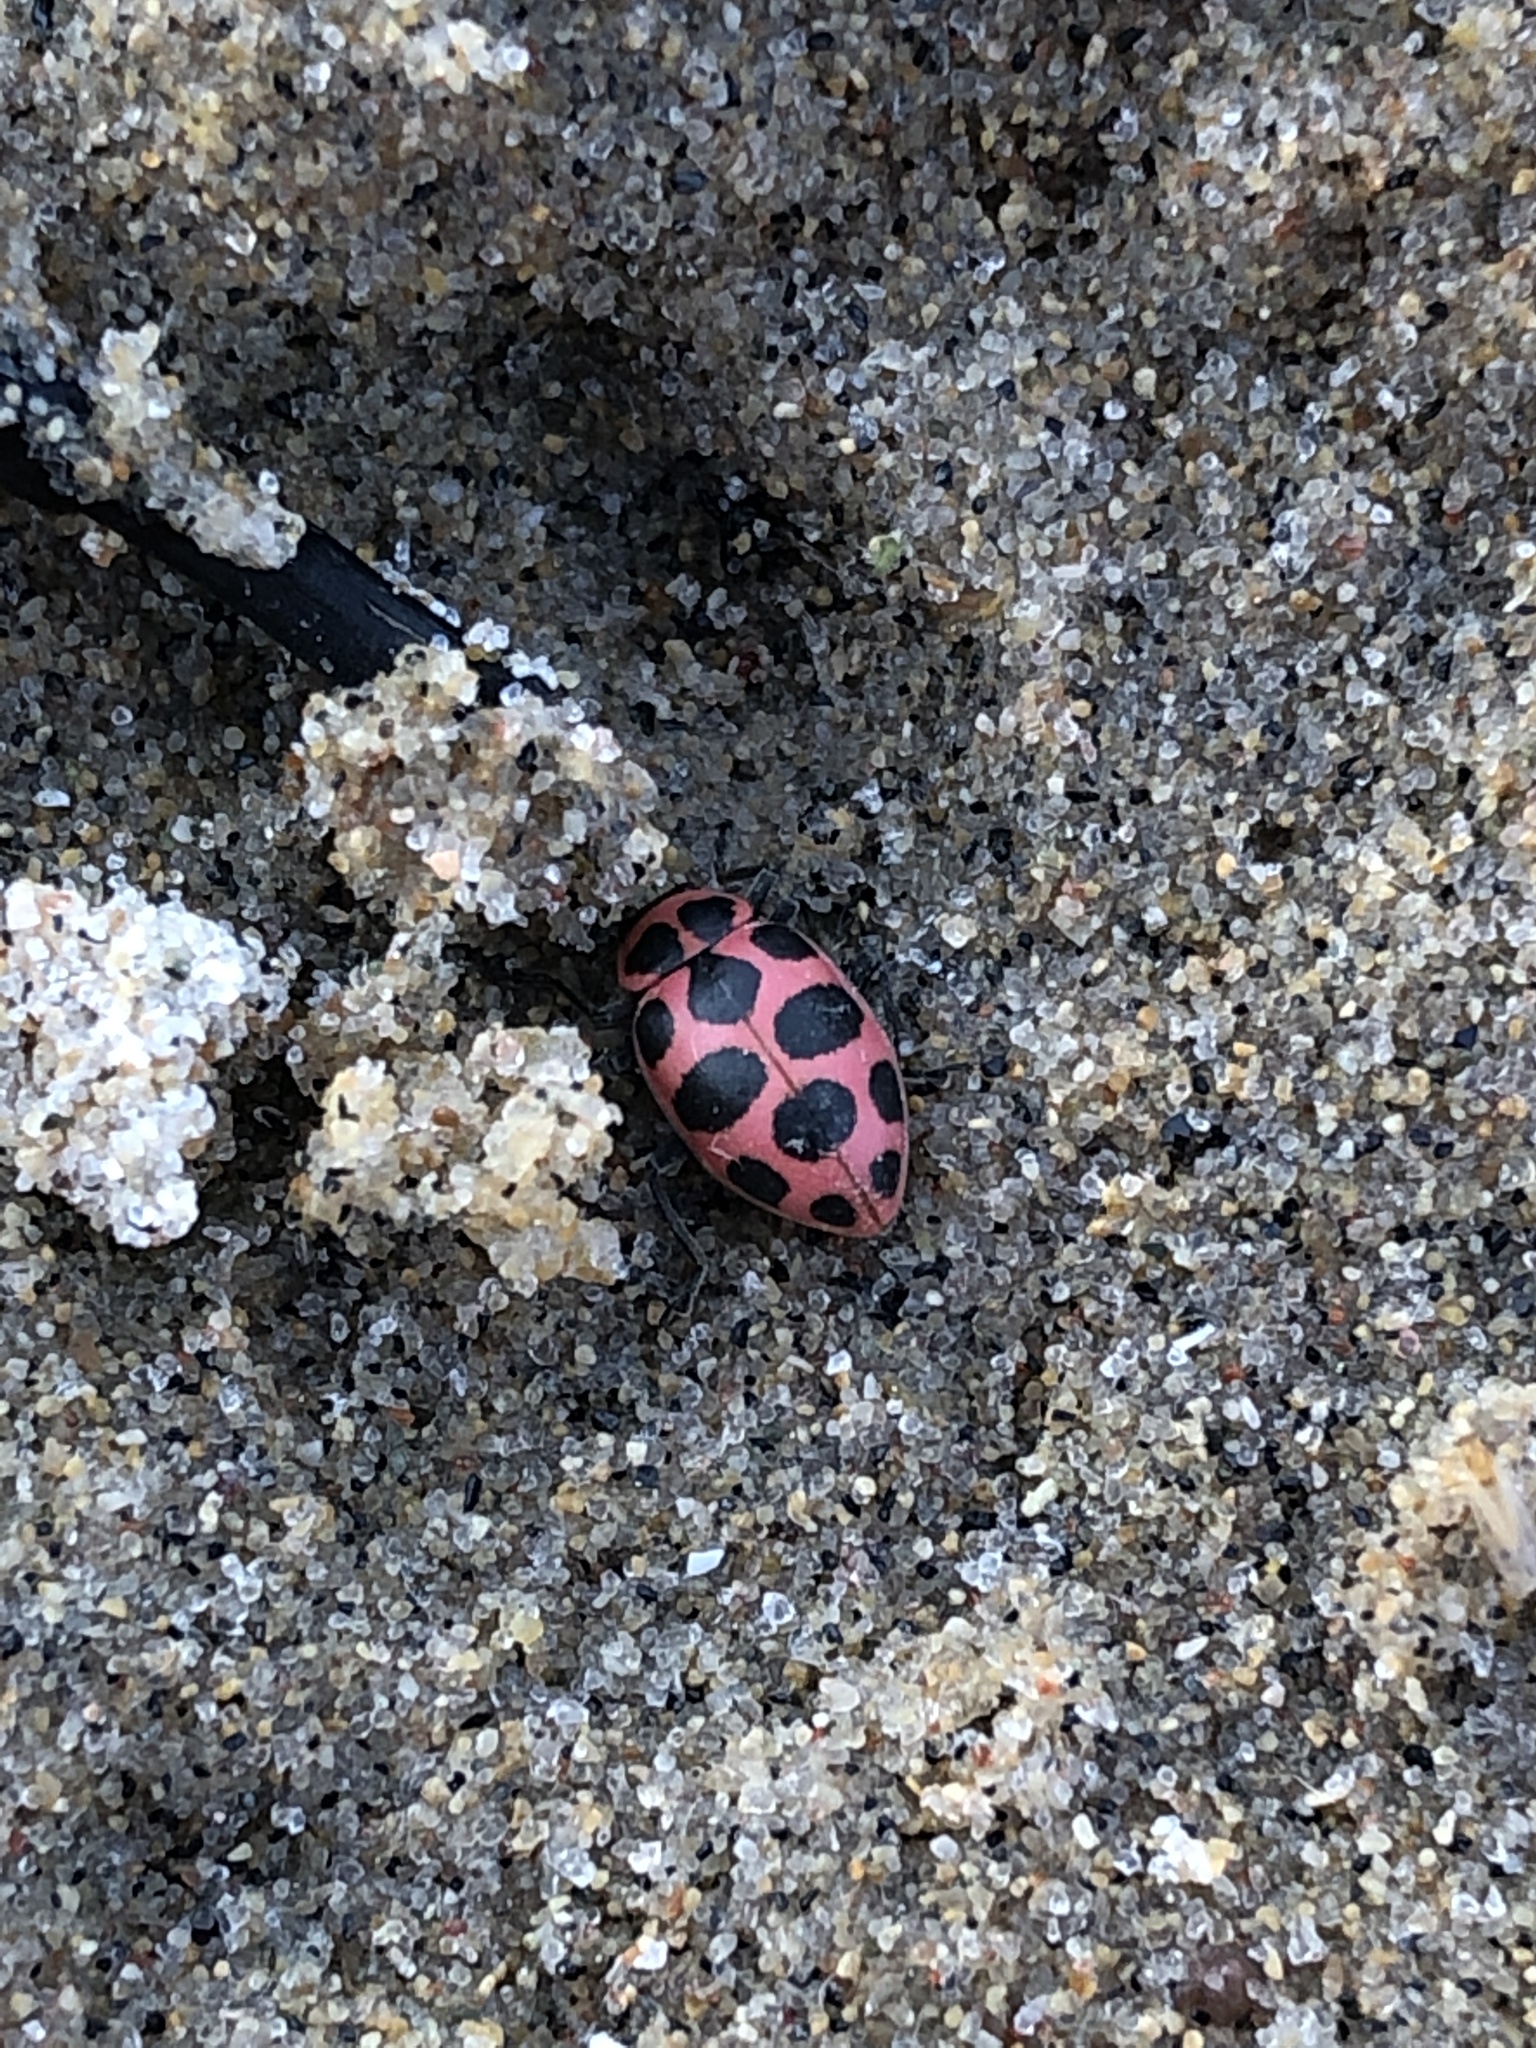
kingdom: Animalia
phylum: Arthropoda
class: Insecta
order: Coleoptera
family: Coccinellidae
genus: Coleomegilla
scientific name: Coleomegilla maculata
